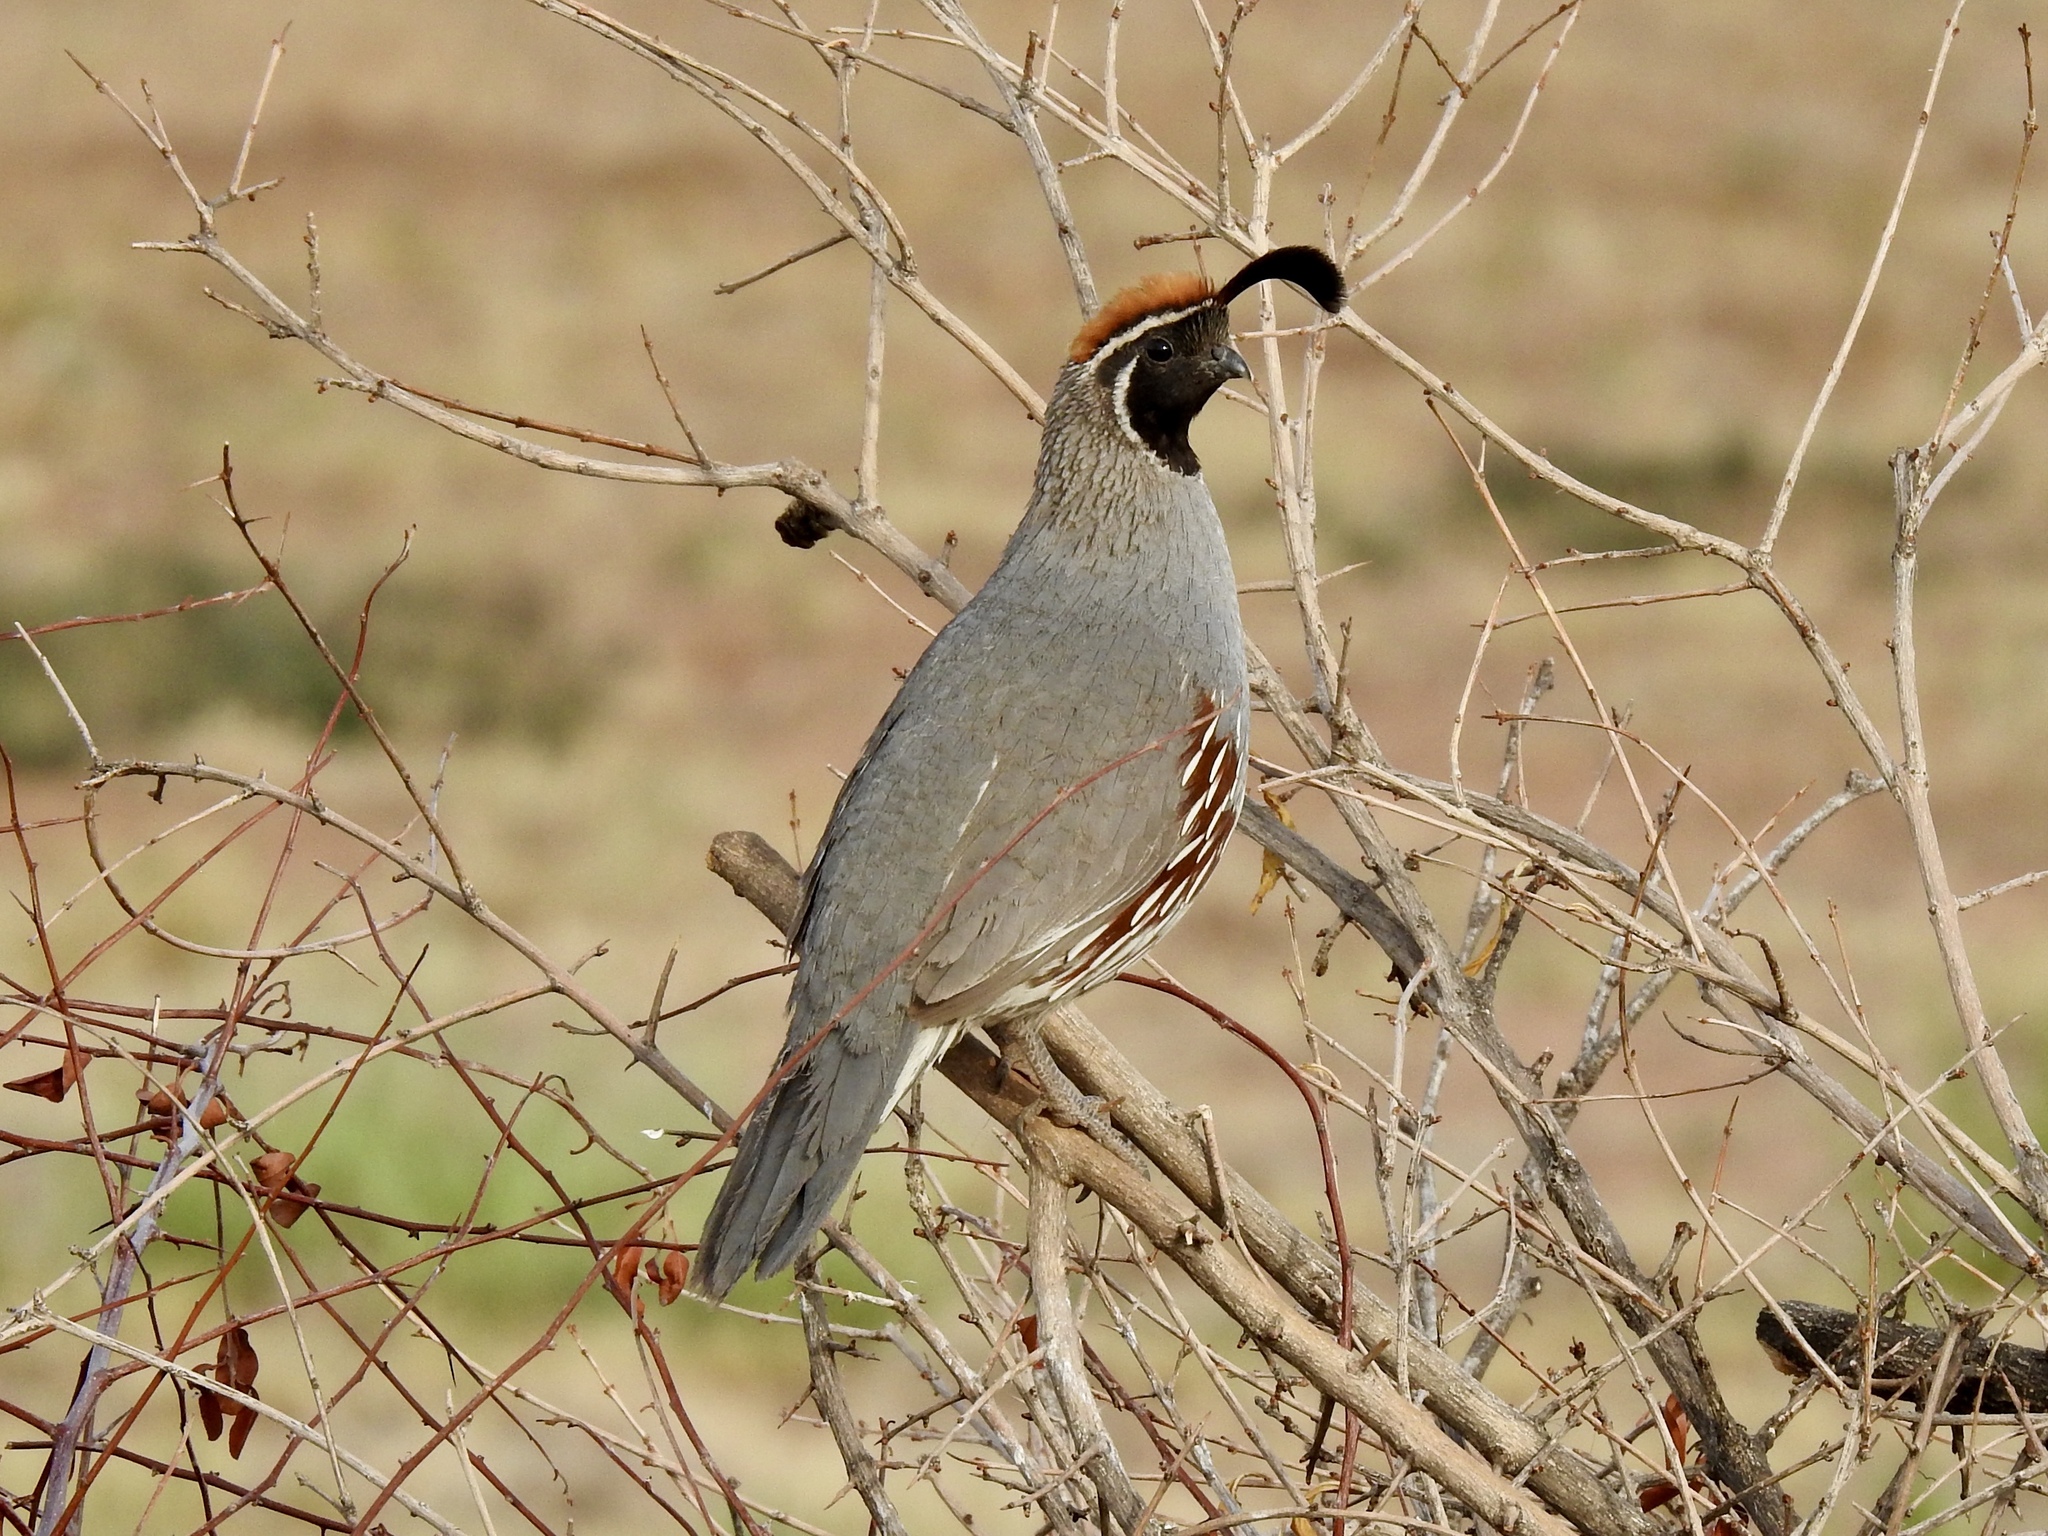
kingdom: Animalia
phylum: Chordata
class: Aves
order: Galliformes
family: Odontophoridae
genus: Callipepla
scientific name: Callipepla gambelii
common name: Gambel's quail
